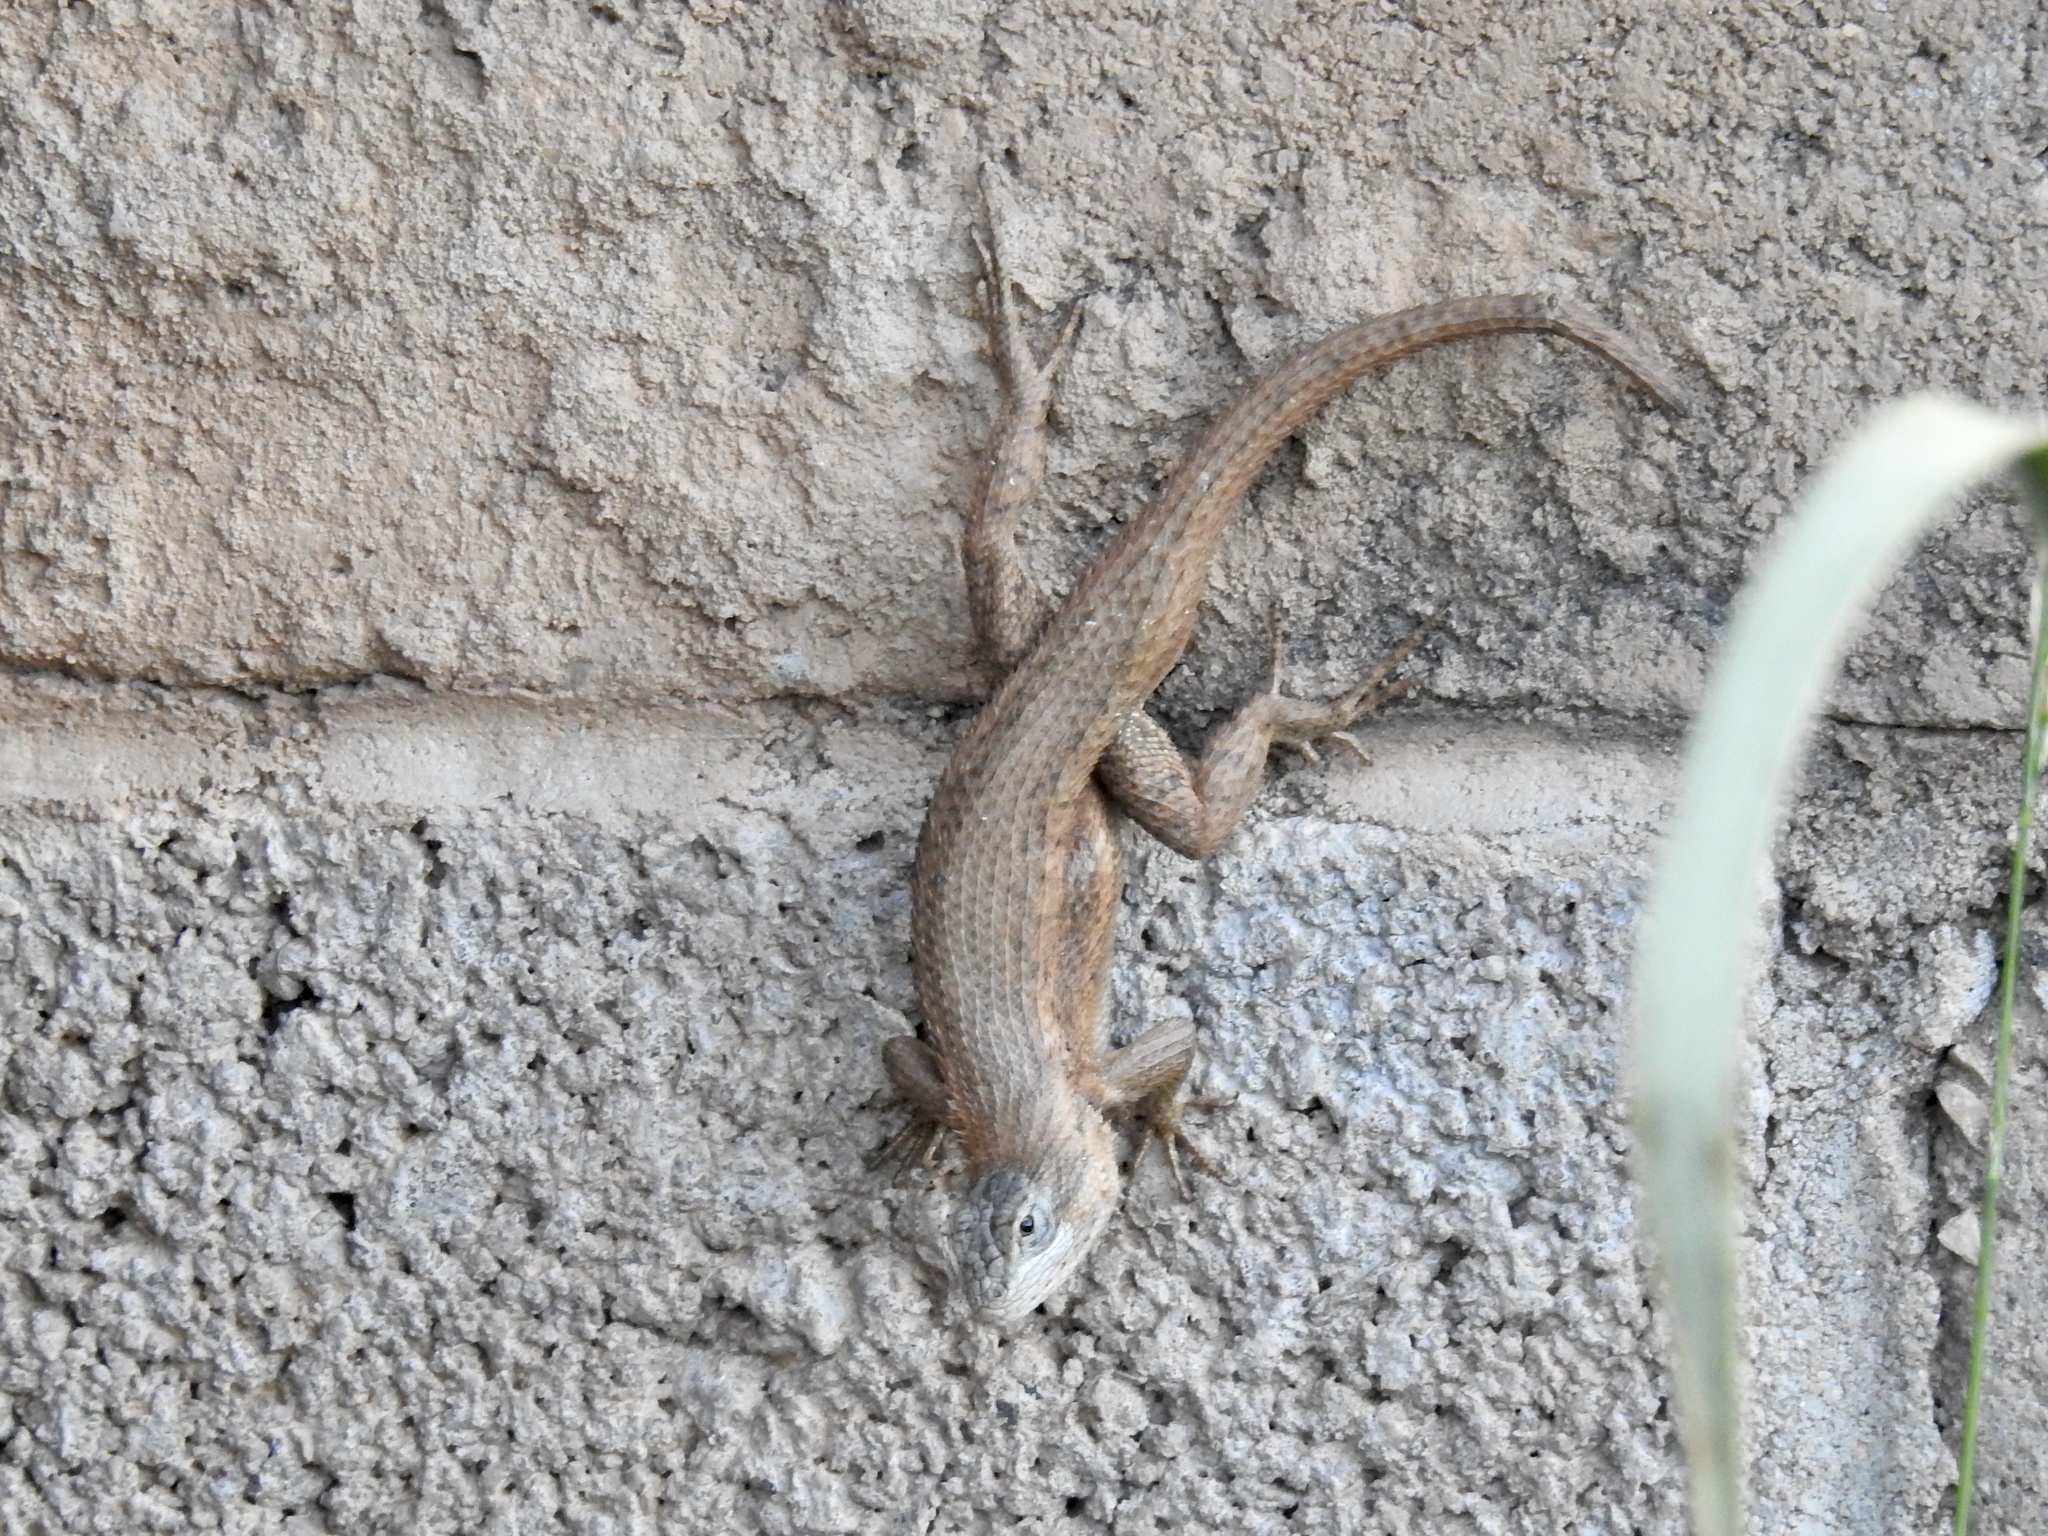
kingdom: Animalia
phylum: Chordata
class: Squamata
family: Phrynosomatidae
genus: Sceloporus
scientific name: Sceloporus cowlesi
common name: White sands prairie lizard
